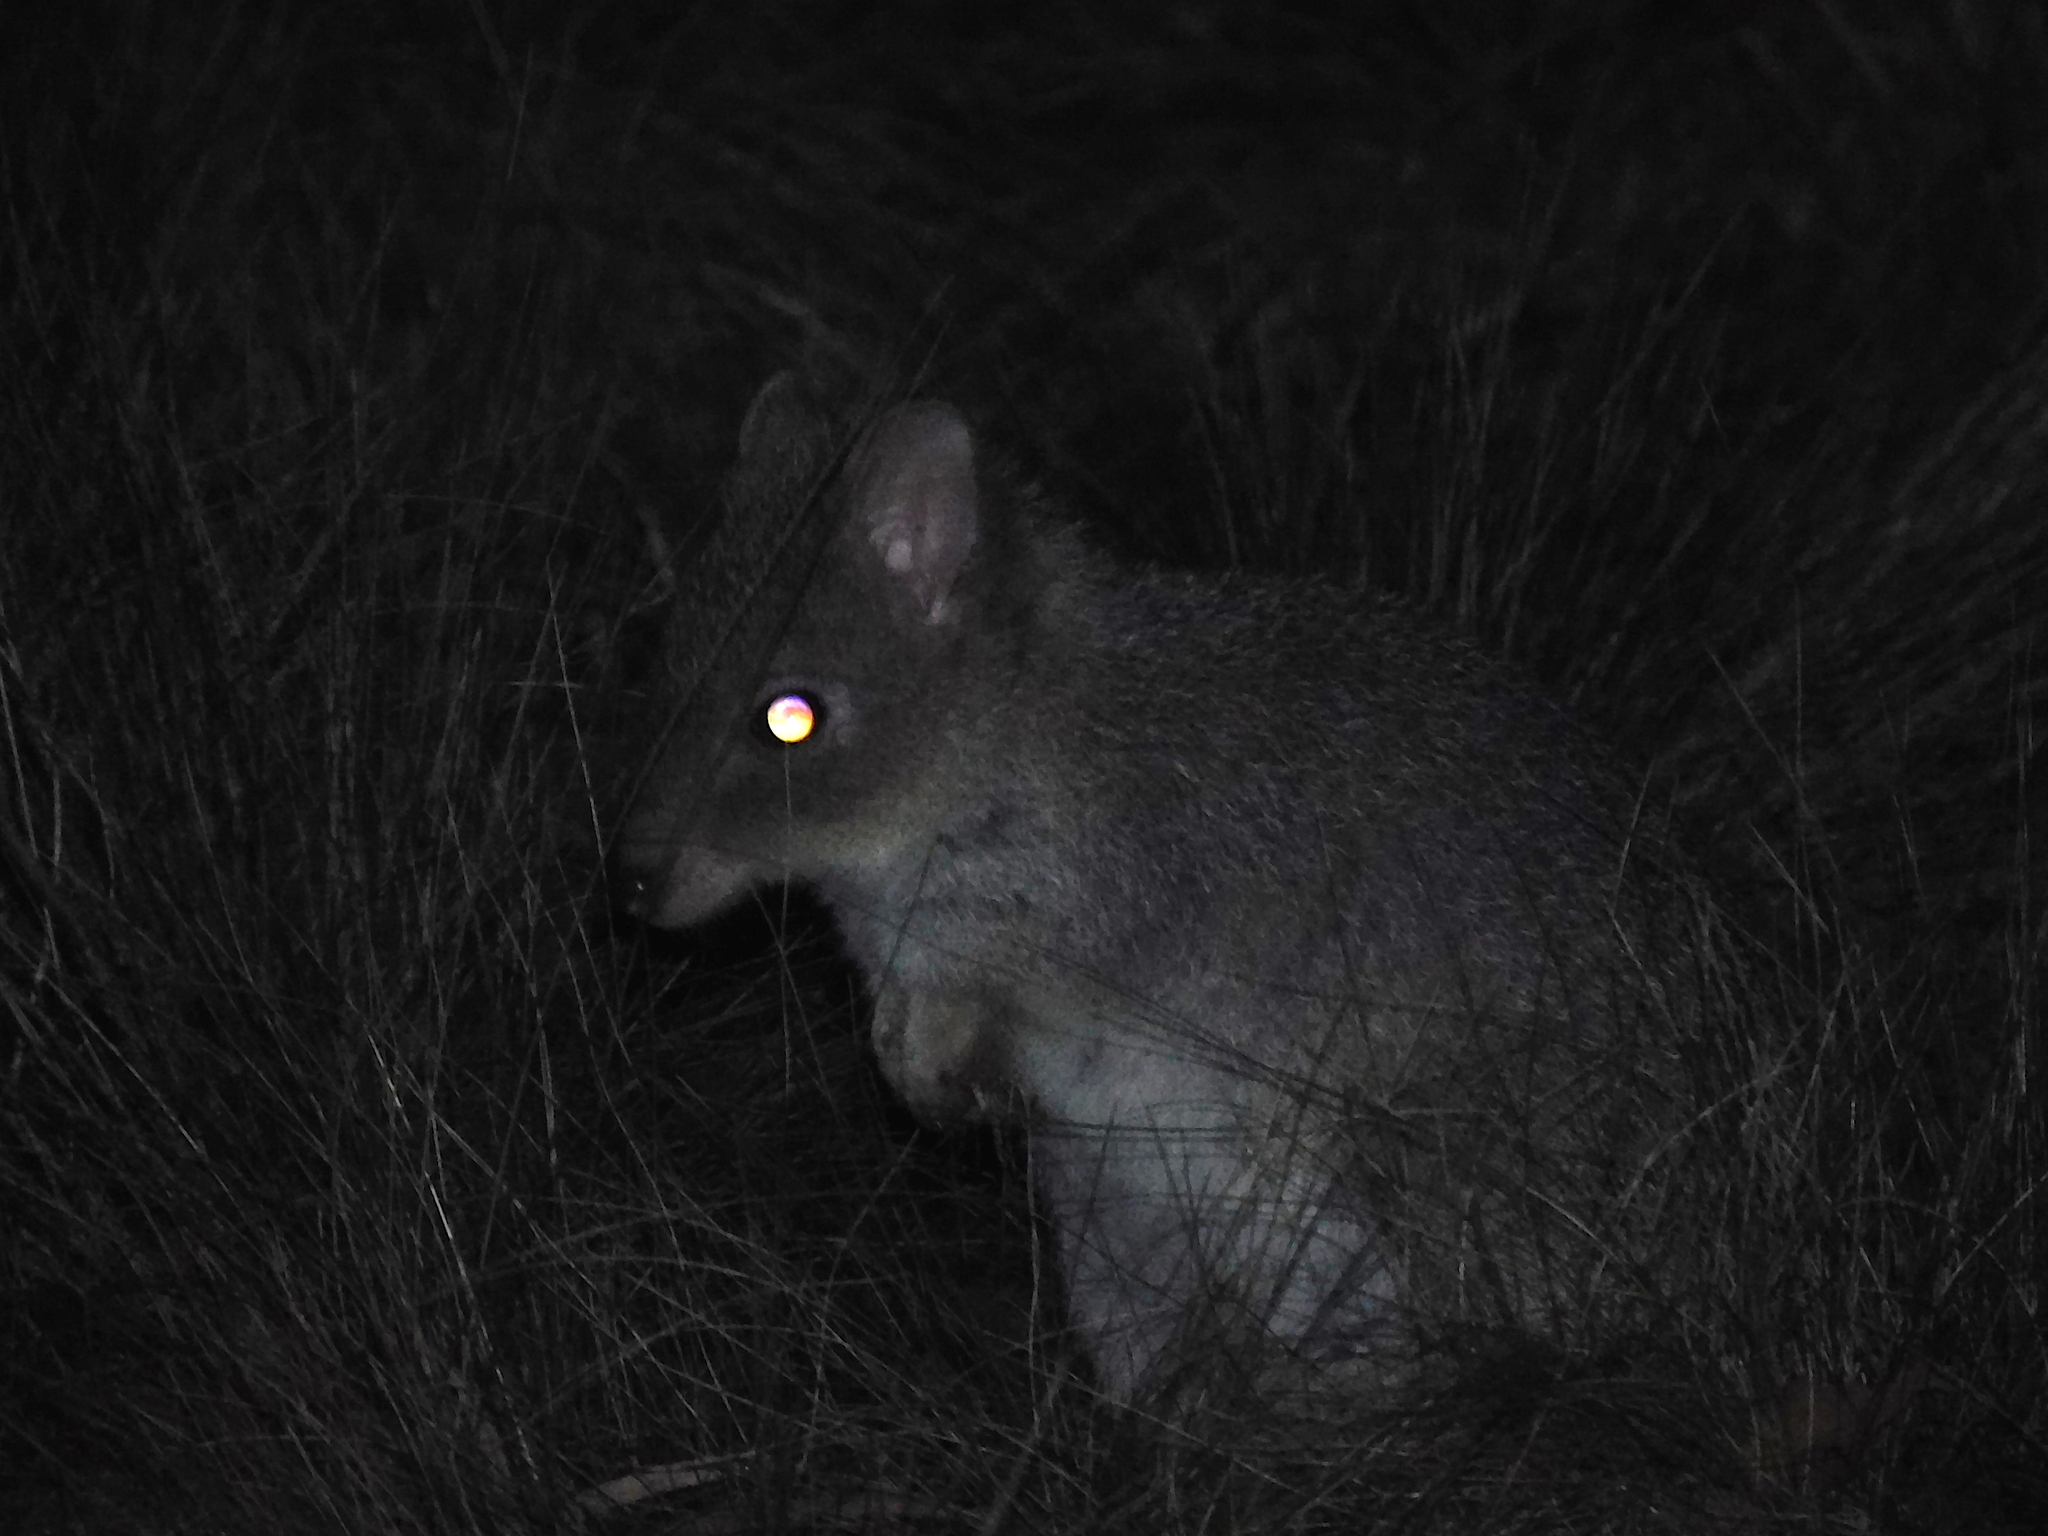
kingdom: Animalia
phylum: Chordata
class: Mammalia
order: Diprotodontia
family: Potoroidae
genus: Bettongia
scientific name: Bettongia gaimardi
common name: Eastern bettong
